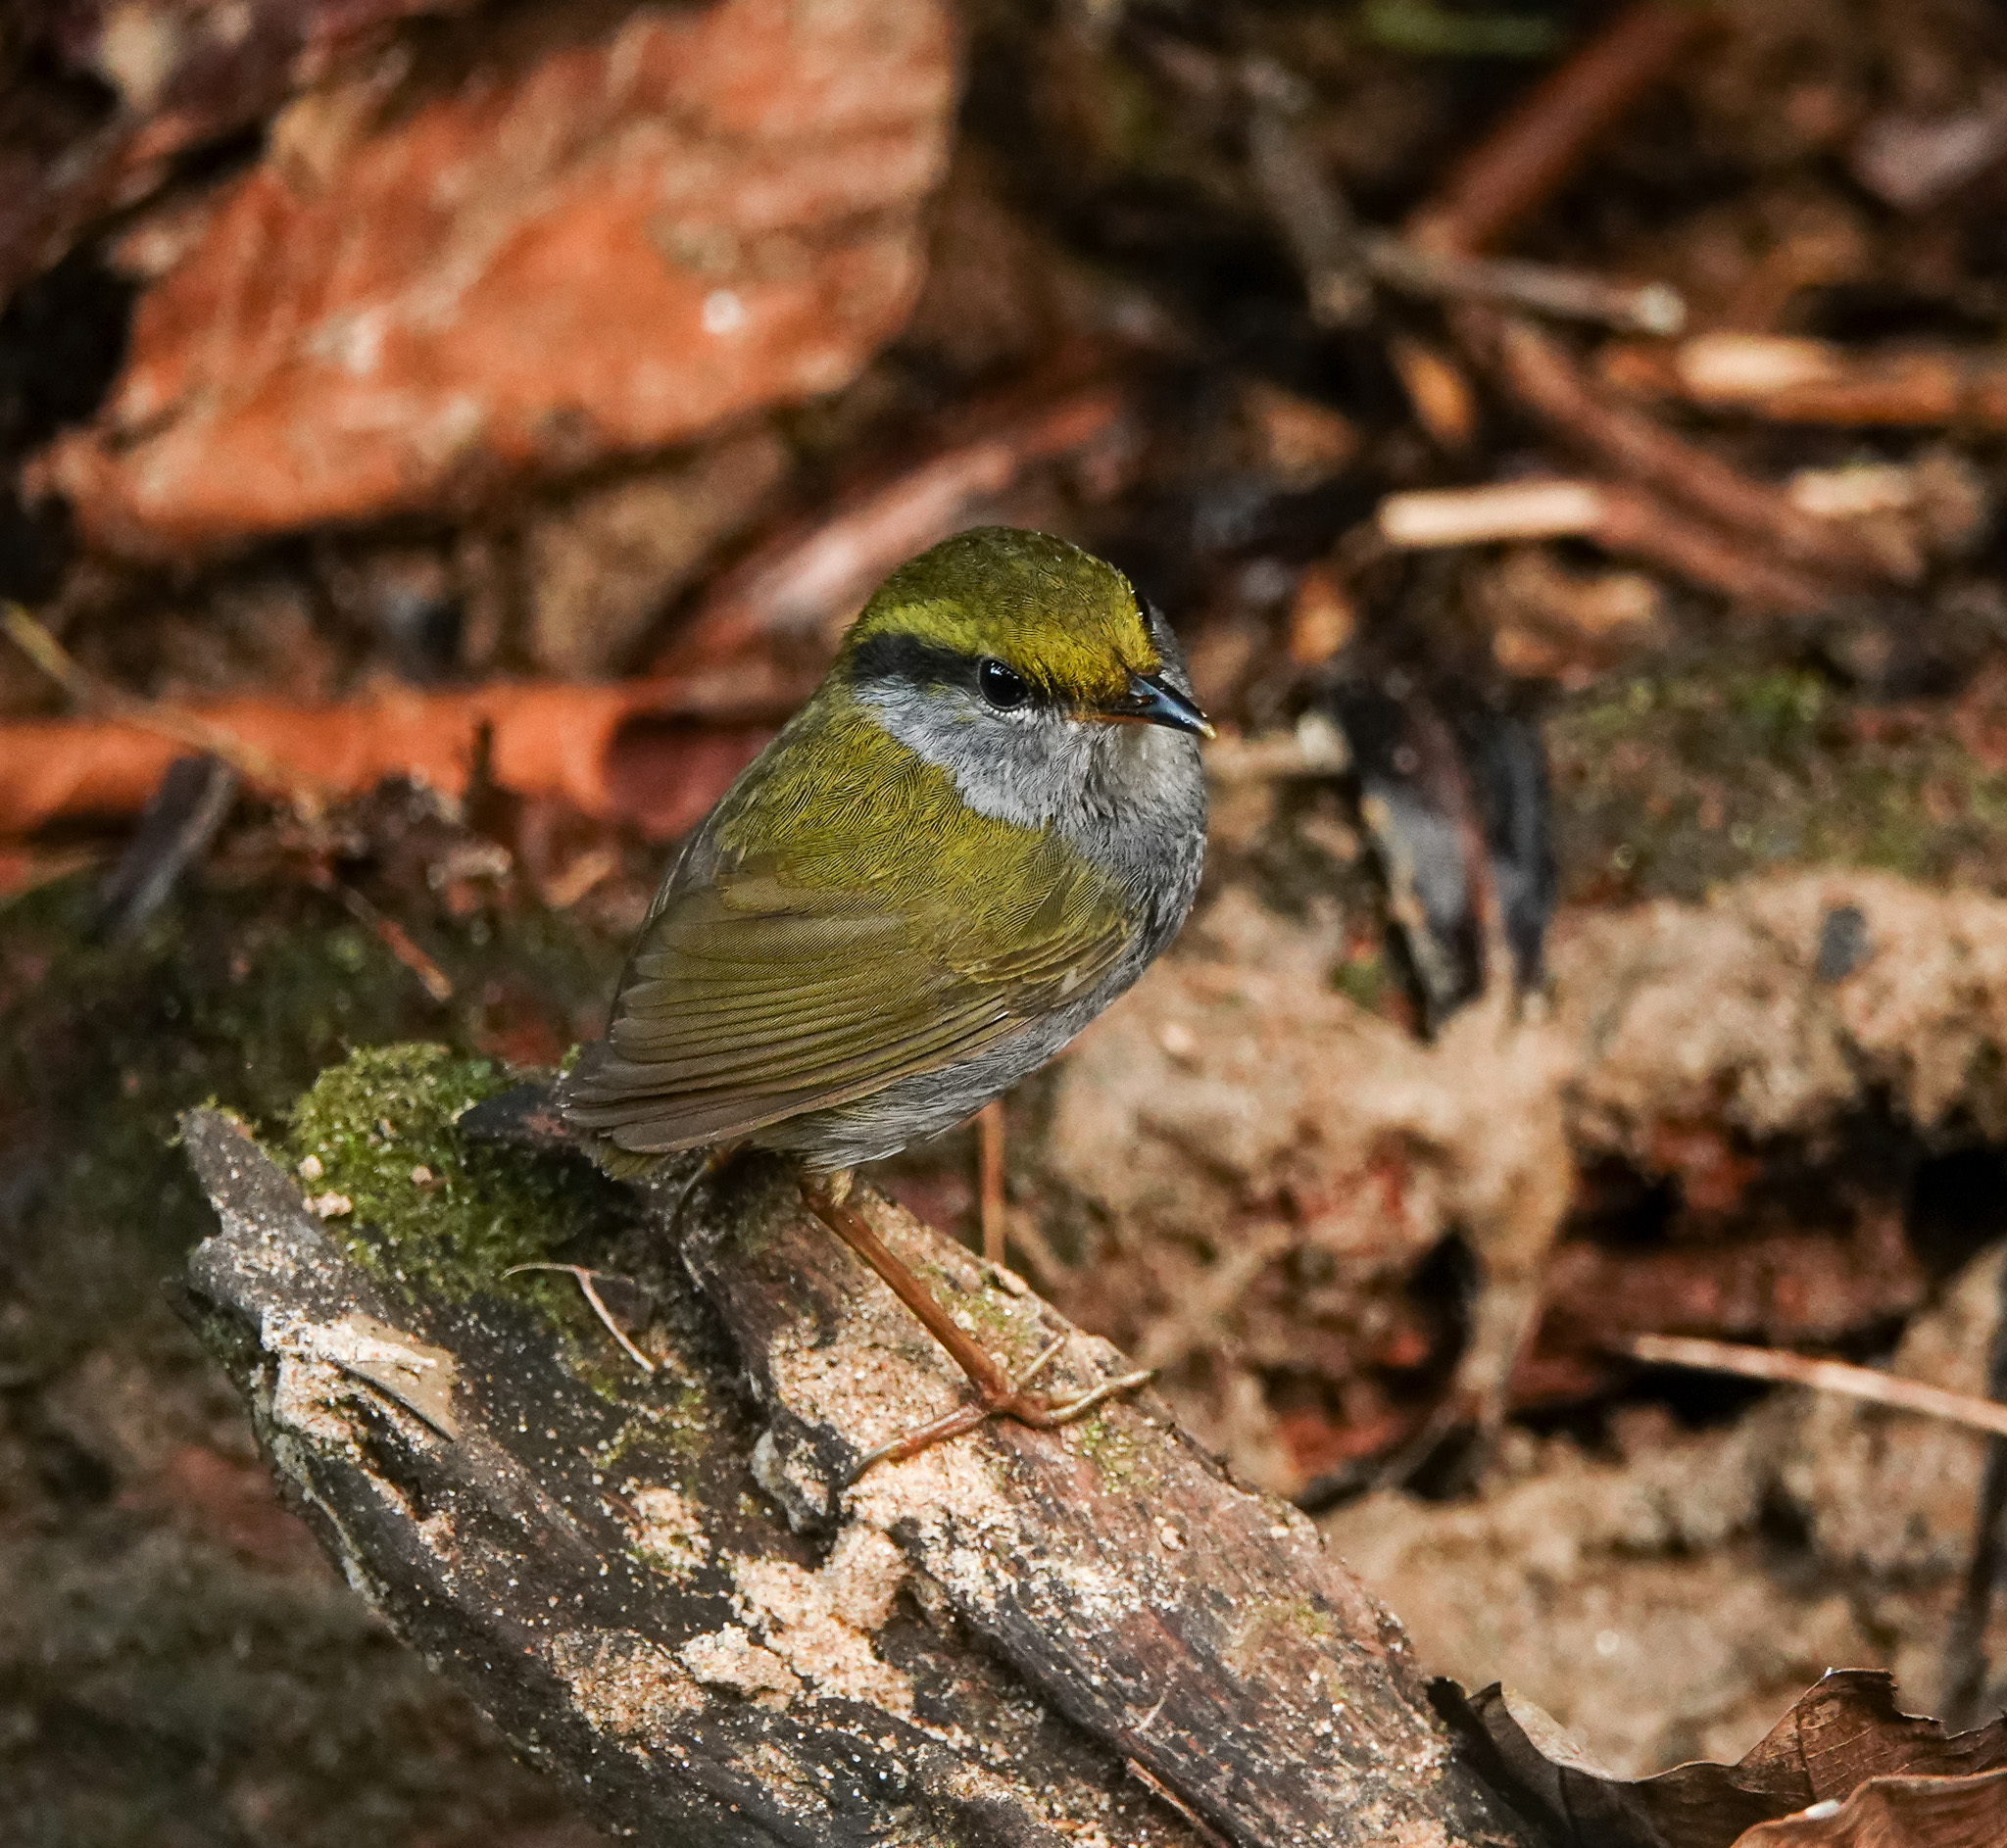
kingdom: Animalia
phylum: Chordata
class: Aves
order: Passeriformes
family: Cettiidae
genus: Tesia
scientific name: Tesia cyaniventer
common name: Grey-bellied tesia
